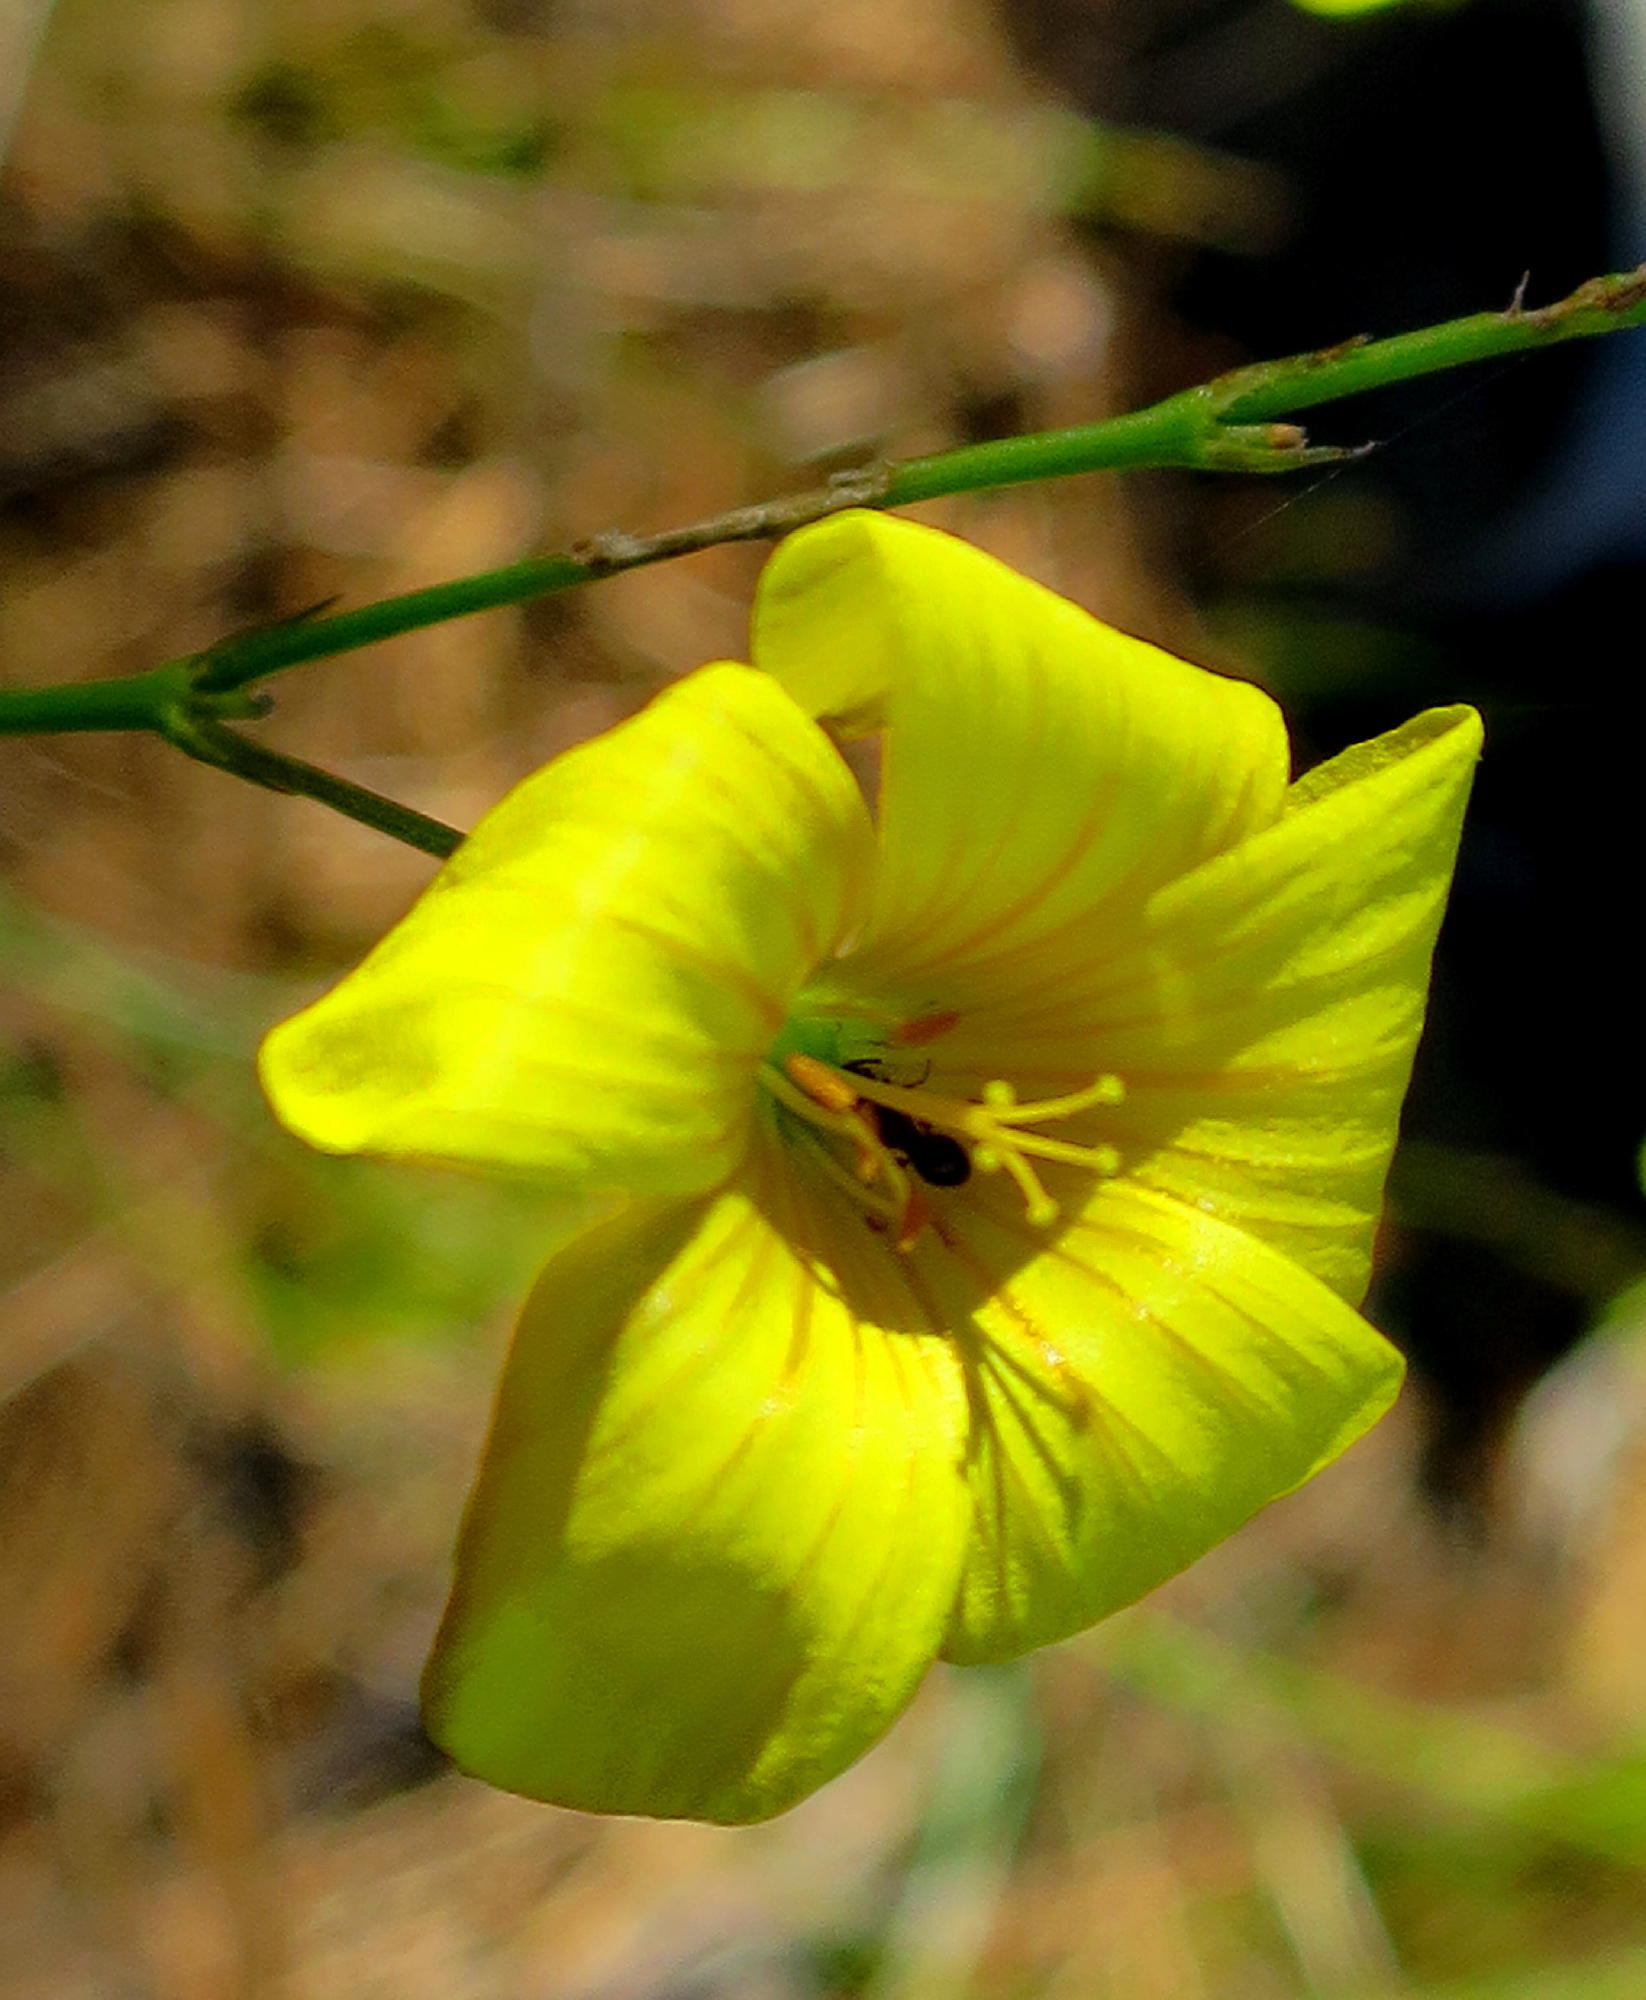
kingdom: Plantae
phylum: Tracheophyta
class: Magnoliopsida
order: Malpighiales
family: Linaceae
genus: Linum
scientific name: Linum africanum
